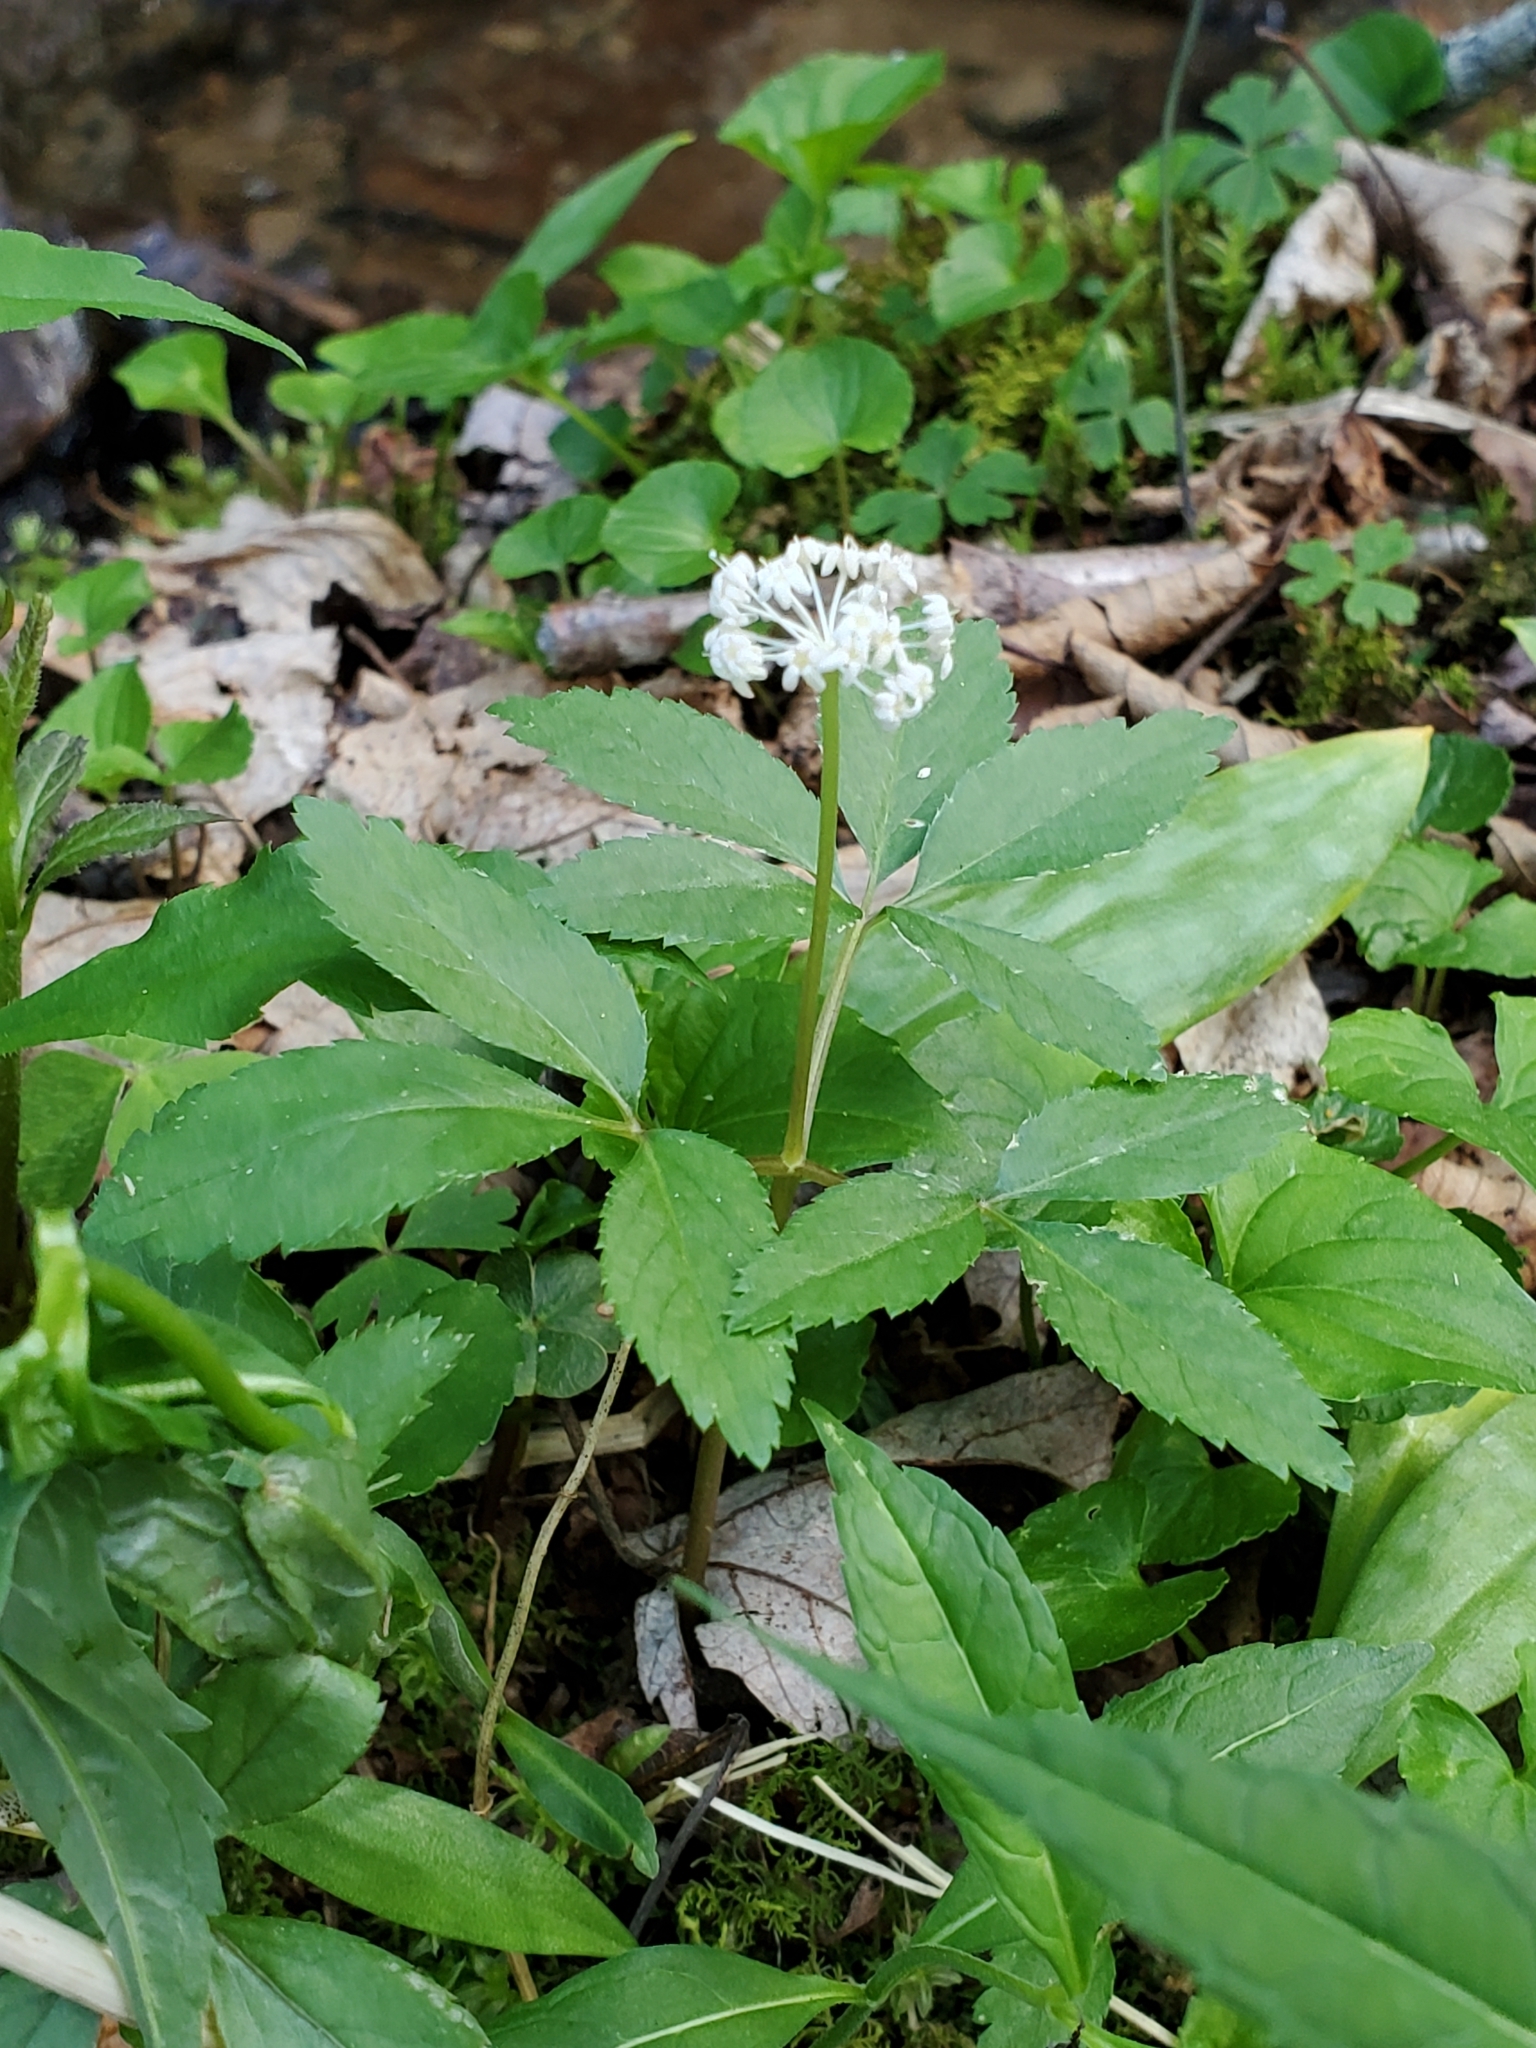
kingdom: Plantae
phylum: Tracheophyta
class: Magnoliopsida
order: Apiales
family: Araliaceae
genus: Panax
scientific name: Panax trifolius
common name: Dwarf ginseng
